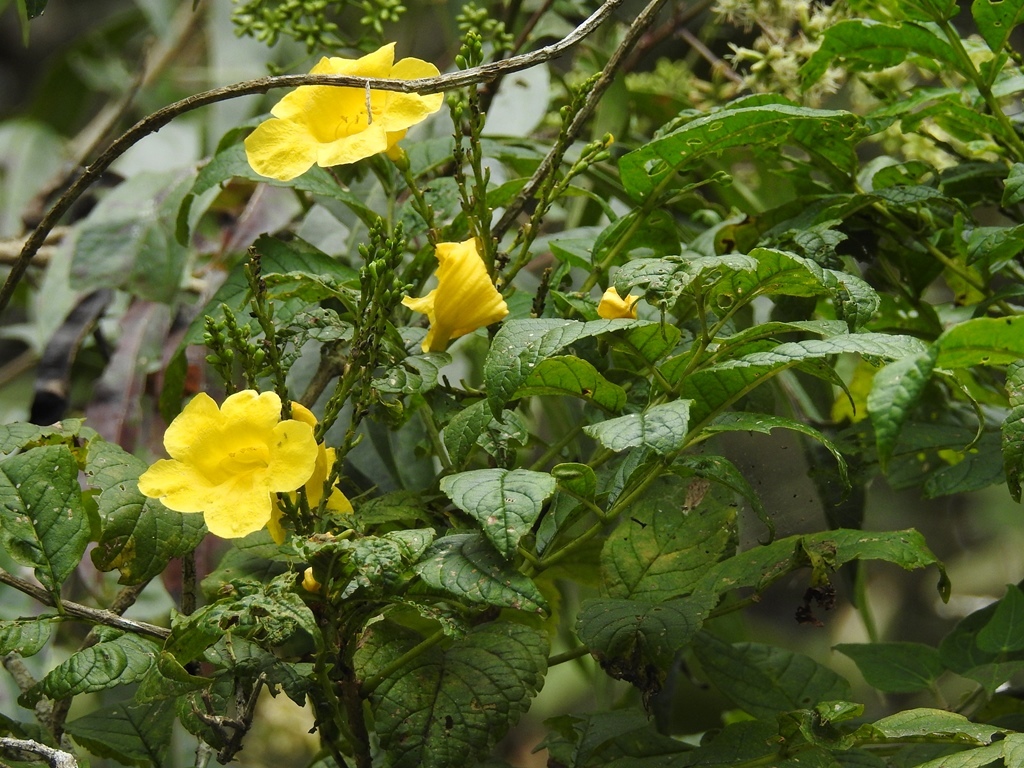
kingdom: Plantae
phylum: Tracheophyta
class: Magnoliopsida
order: Lamiales
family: Bignoniaceae
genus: Tecoma
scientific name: Tecoma stans
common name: Yellow trumpetbush
